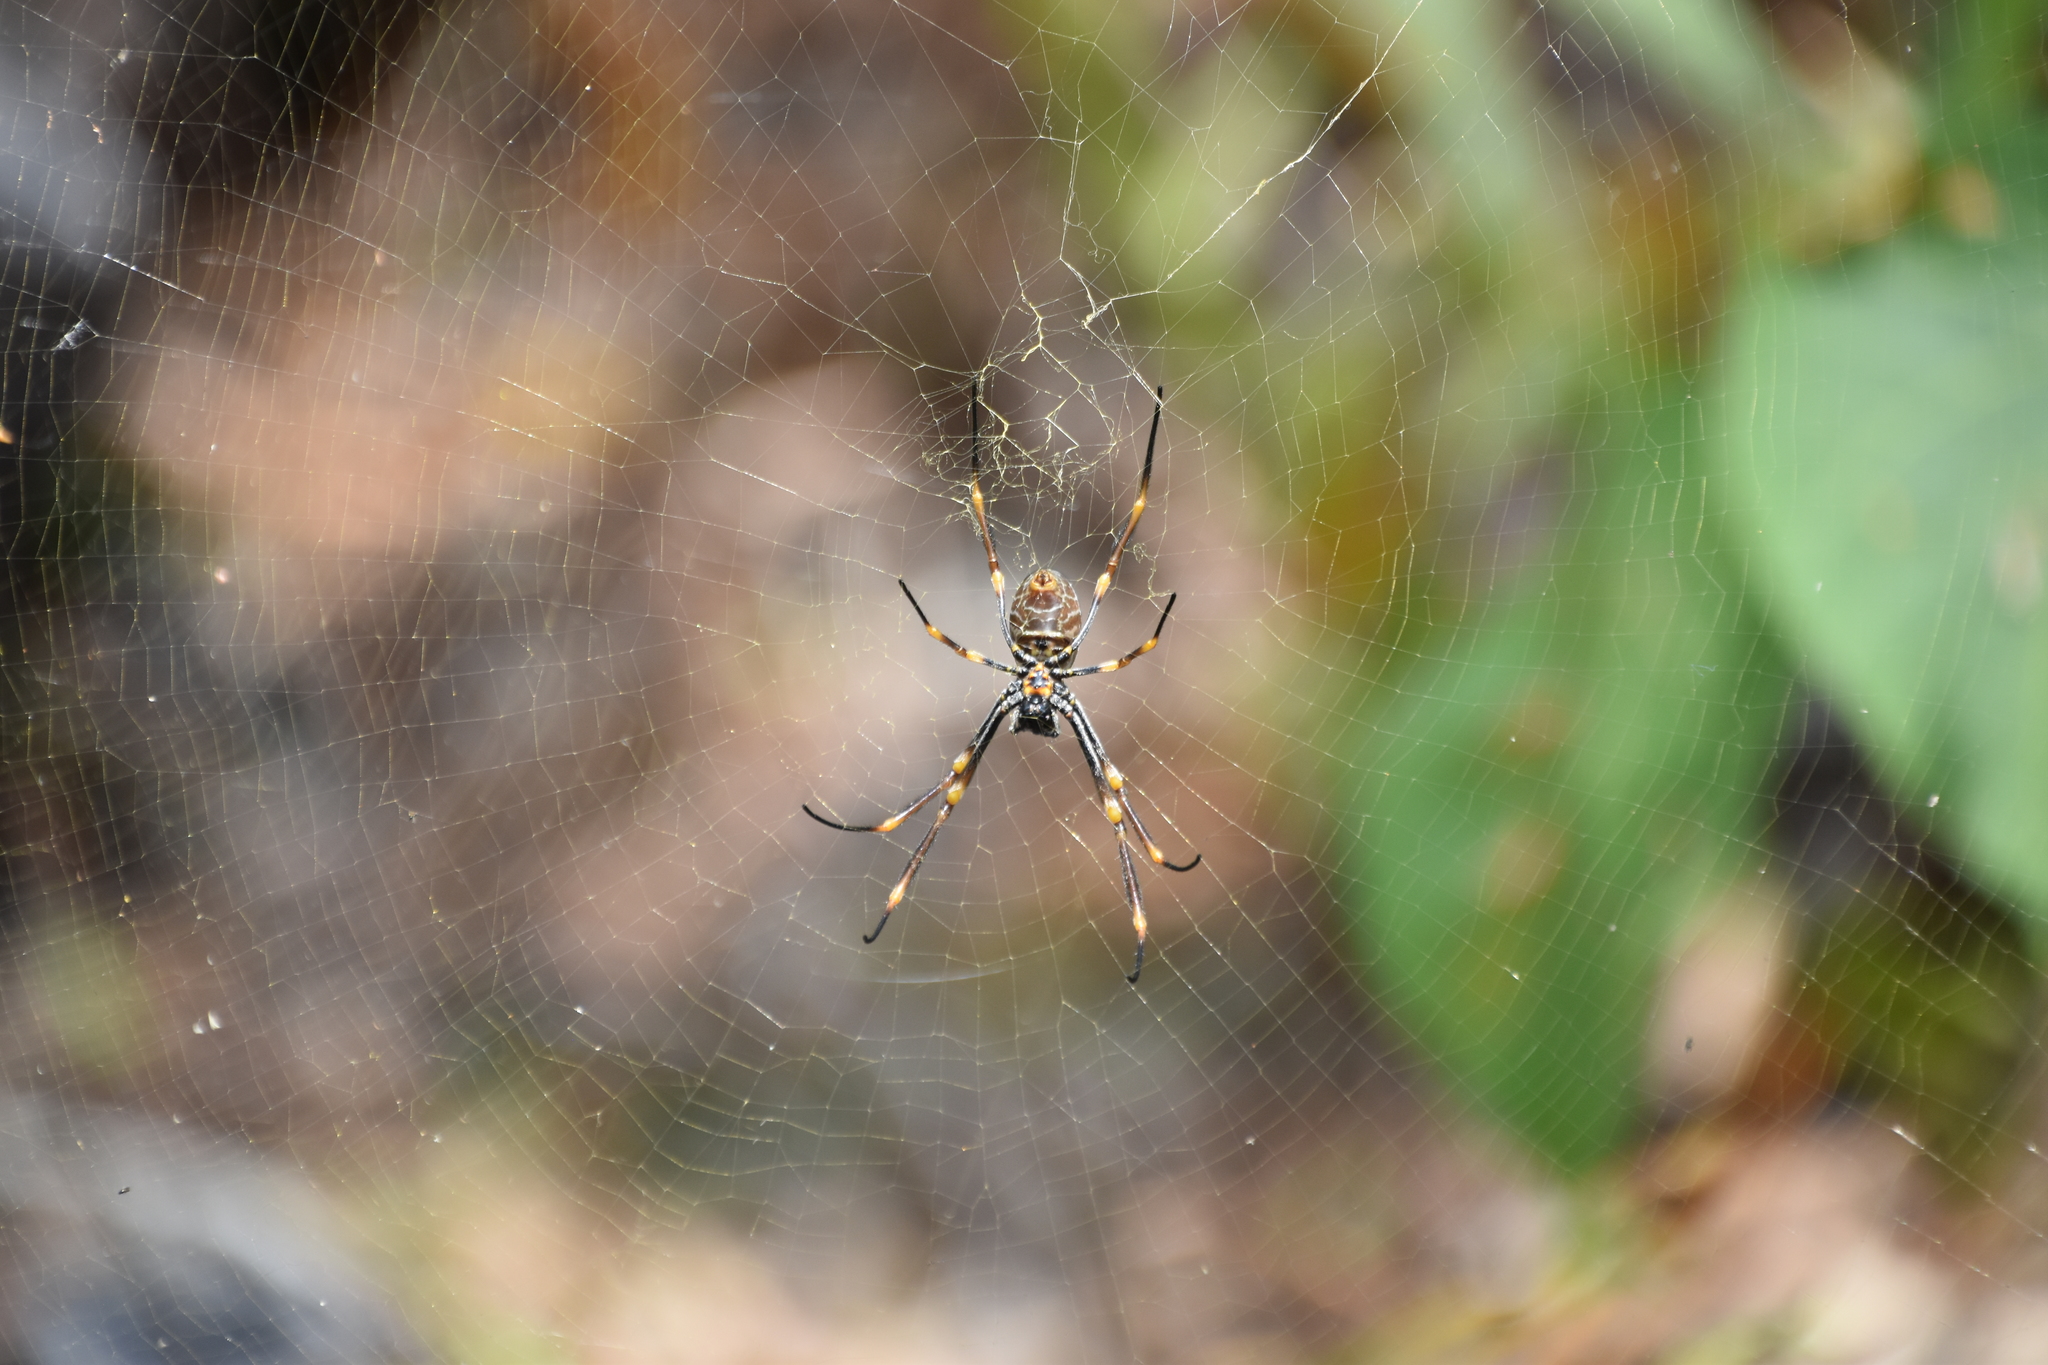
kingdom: Animalia
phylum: Arthropoda
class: Arachnida
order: Araneae
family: Araneidae
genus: Trichonephila
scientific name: Trichonephila plumipes
